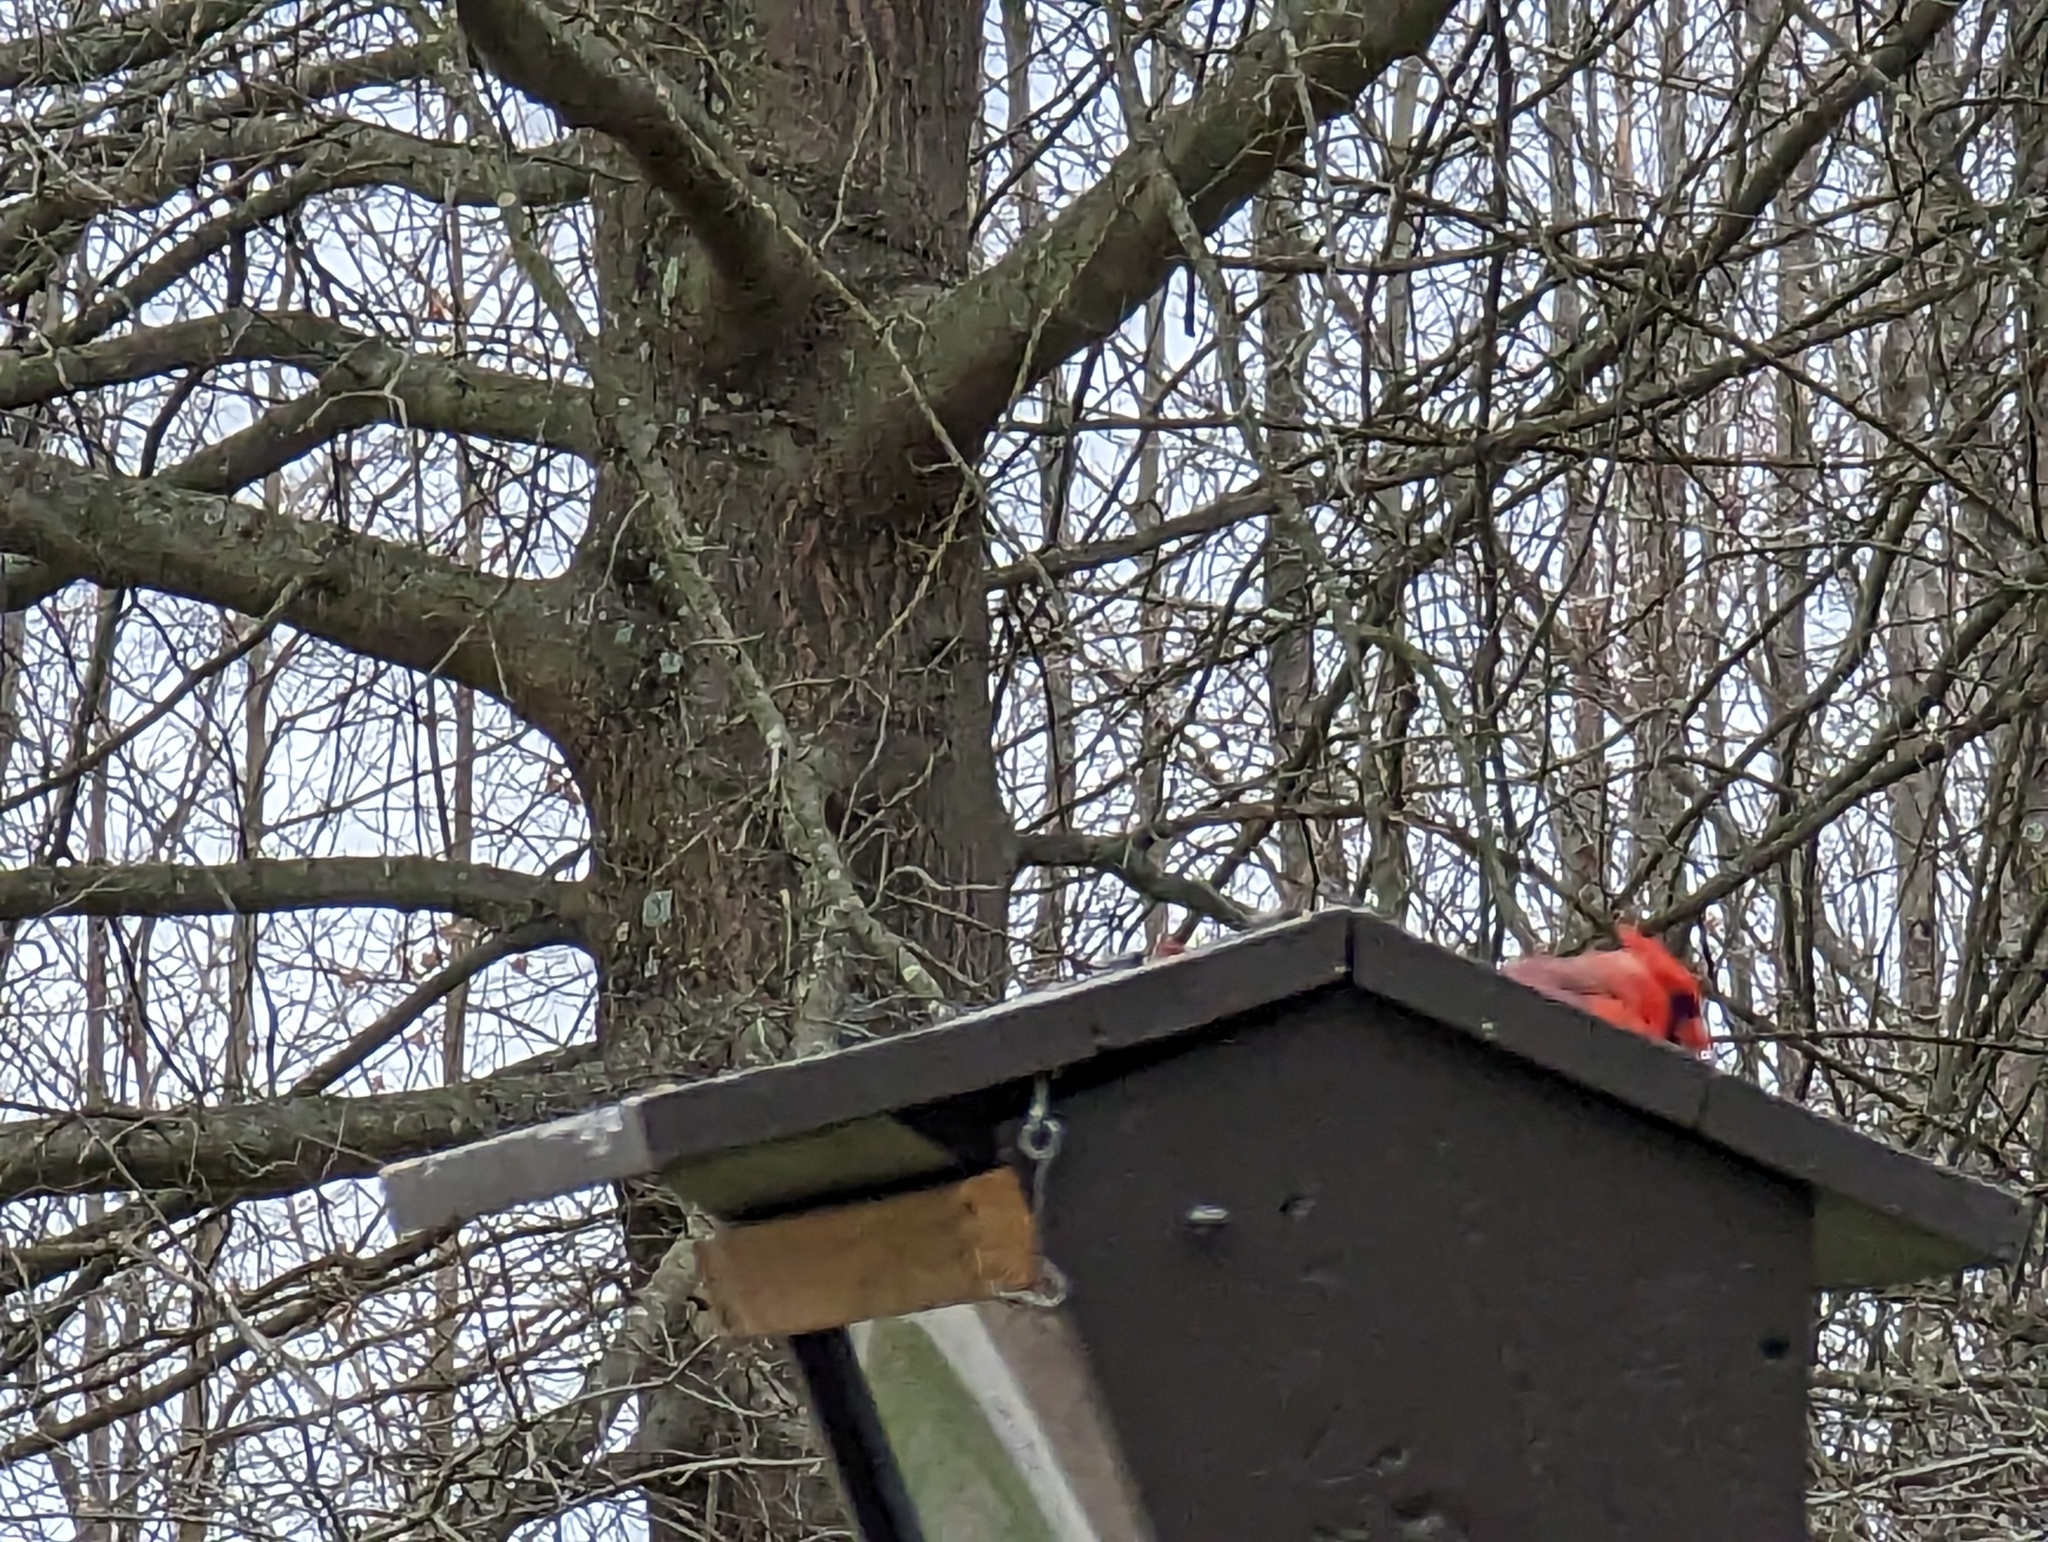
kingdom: Animalia
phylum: Chordata
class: Aves
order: Passeriformes
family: Cardinalidae
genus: Cardinalis
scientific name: Cardinalis cardinalis
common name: Northern cardinal
